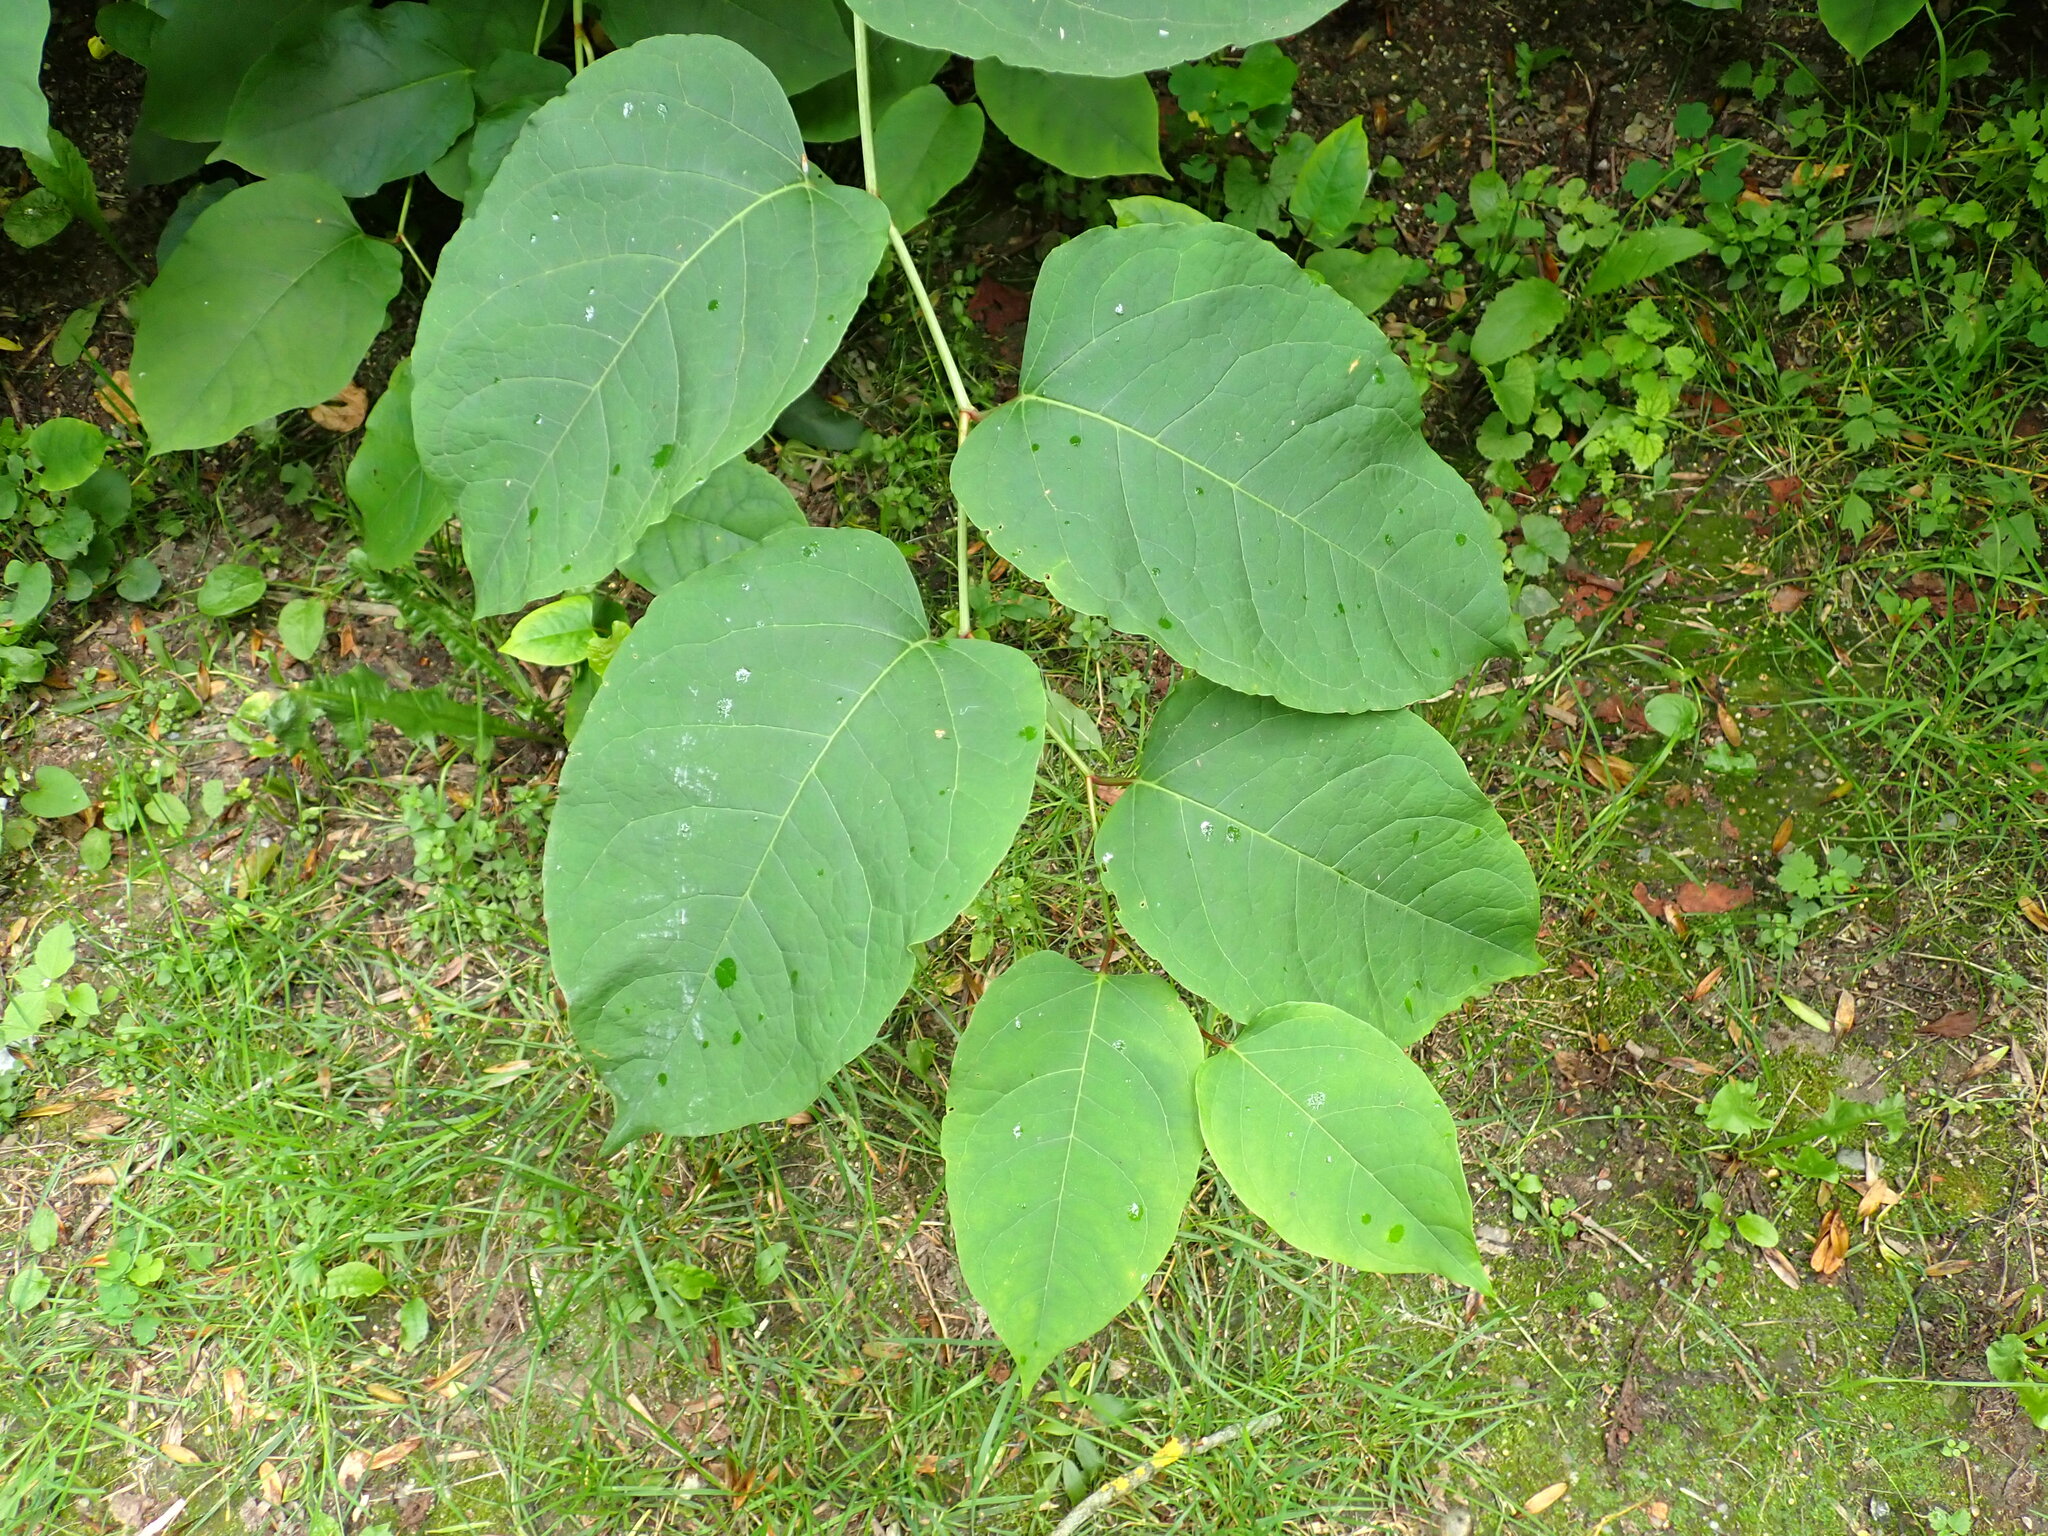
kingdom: Plantae
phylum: Tracheophyta
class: Magnoliopsida
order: Caryophyllales
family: Polygonaceae
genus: Reynoutria
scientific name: Reynoutria bohemica
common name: Bohemian knotweed
